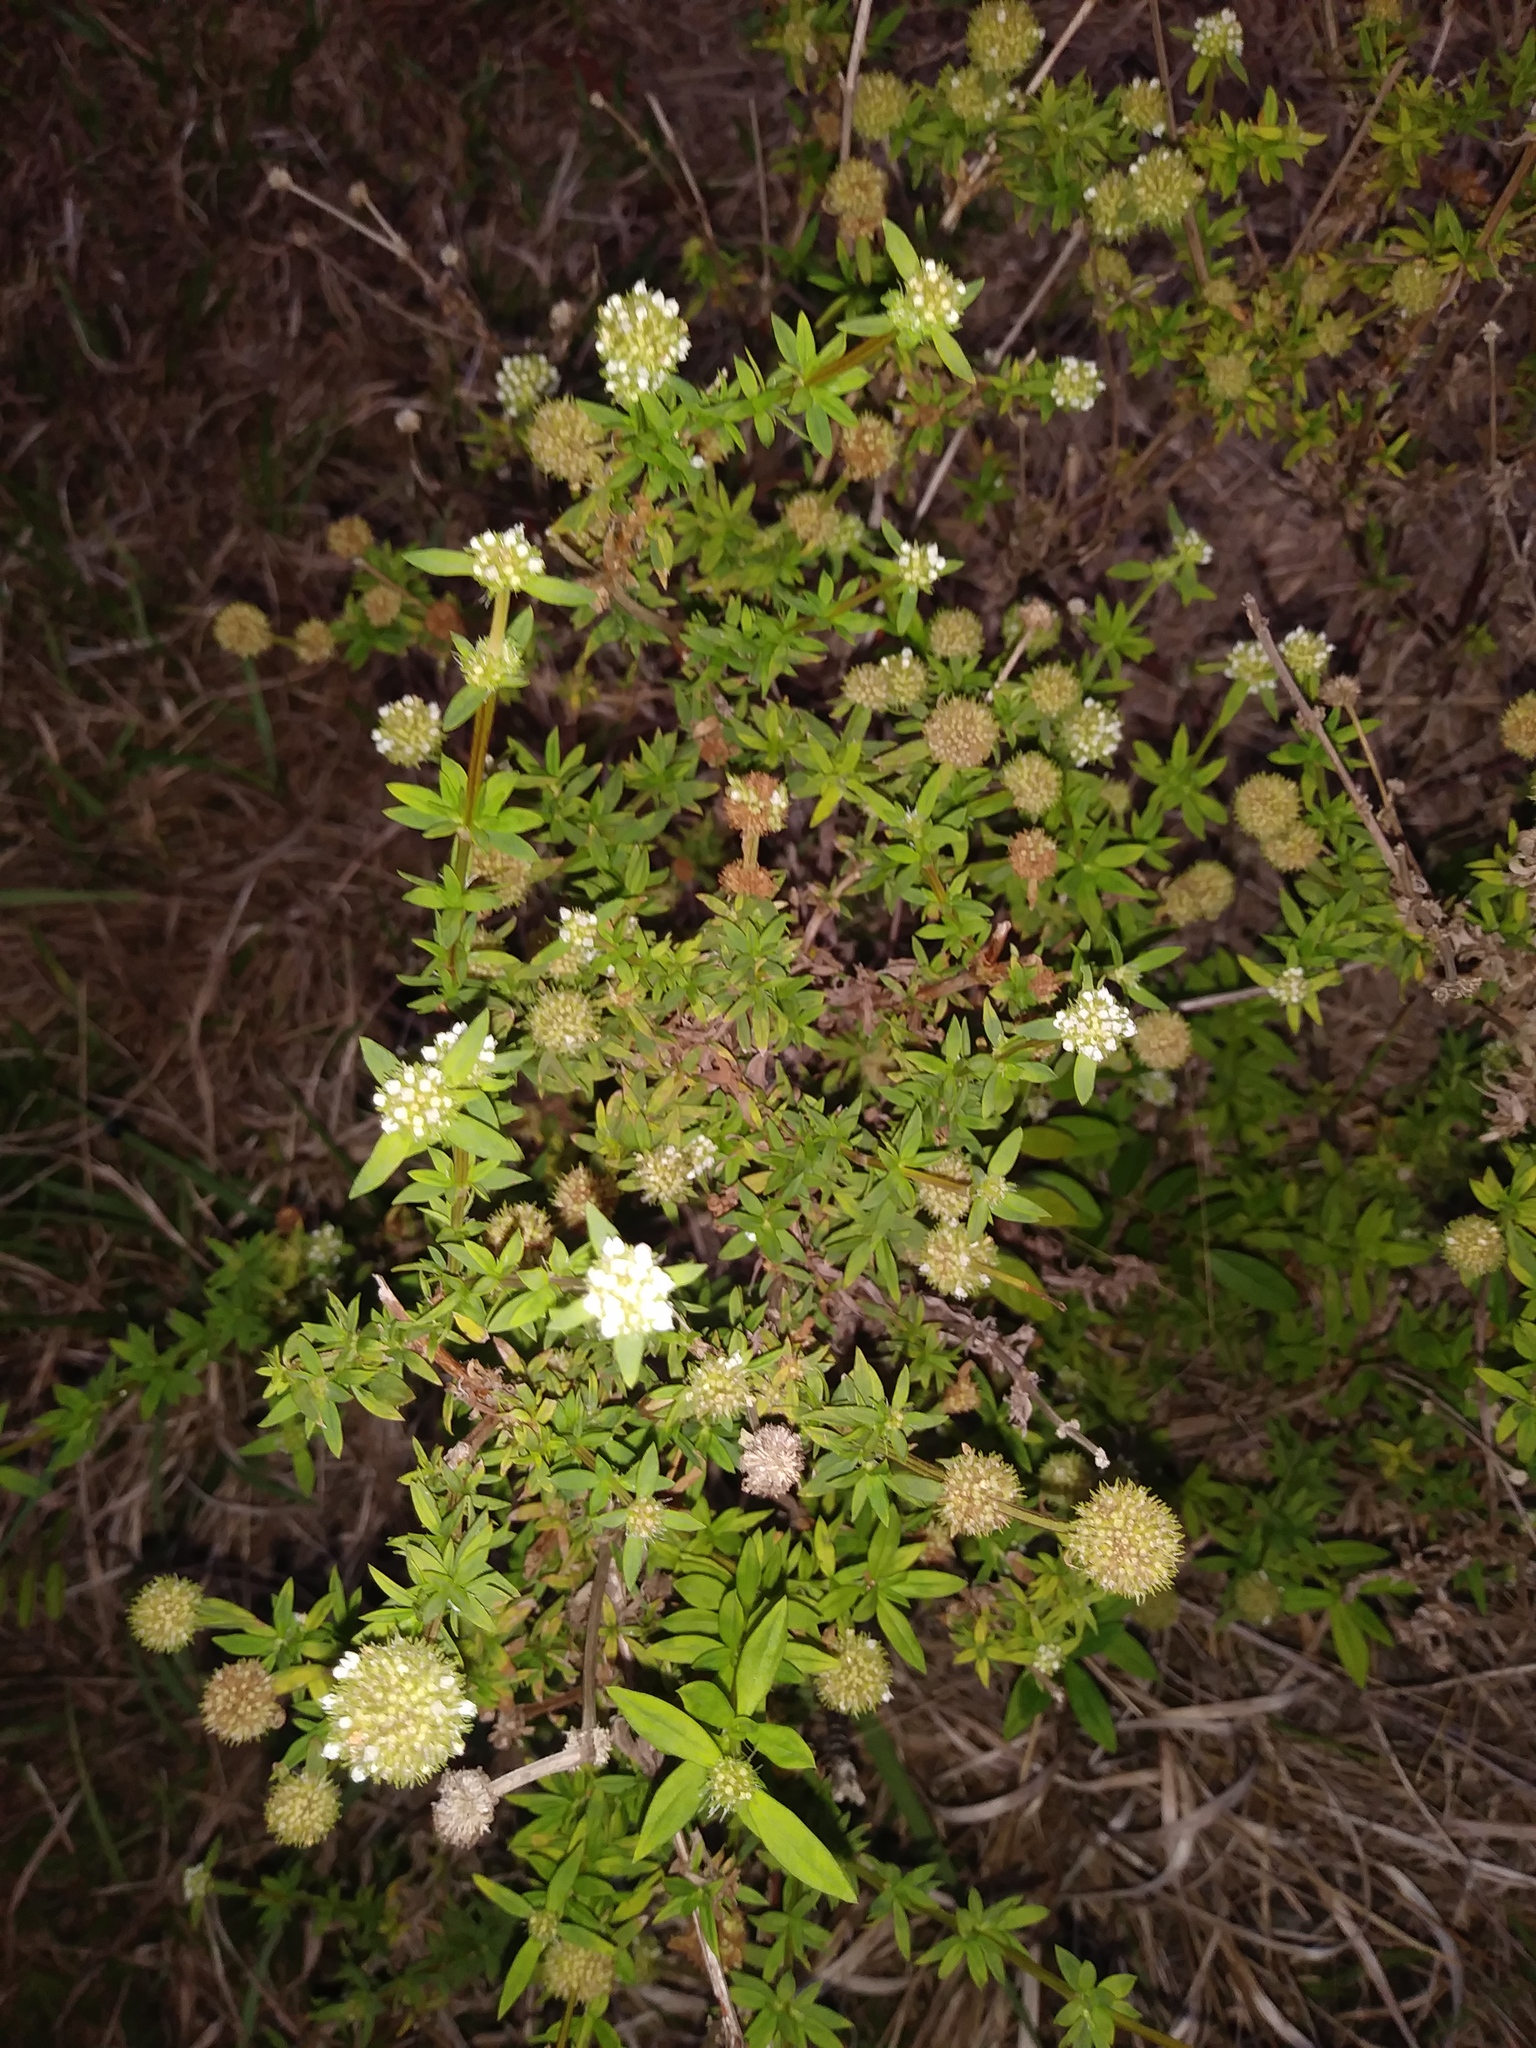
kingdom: Plantae
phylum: Tracheophyta
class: Magnoliopsida
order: Gentianales
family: Rubiaceae
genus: Spermacoce
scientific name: Spermacoce verticillata
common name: Shrubby false buttonweed
